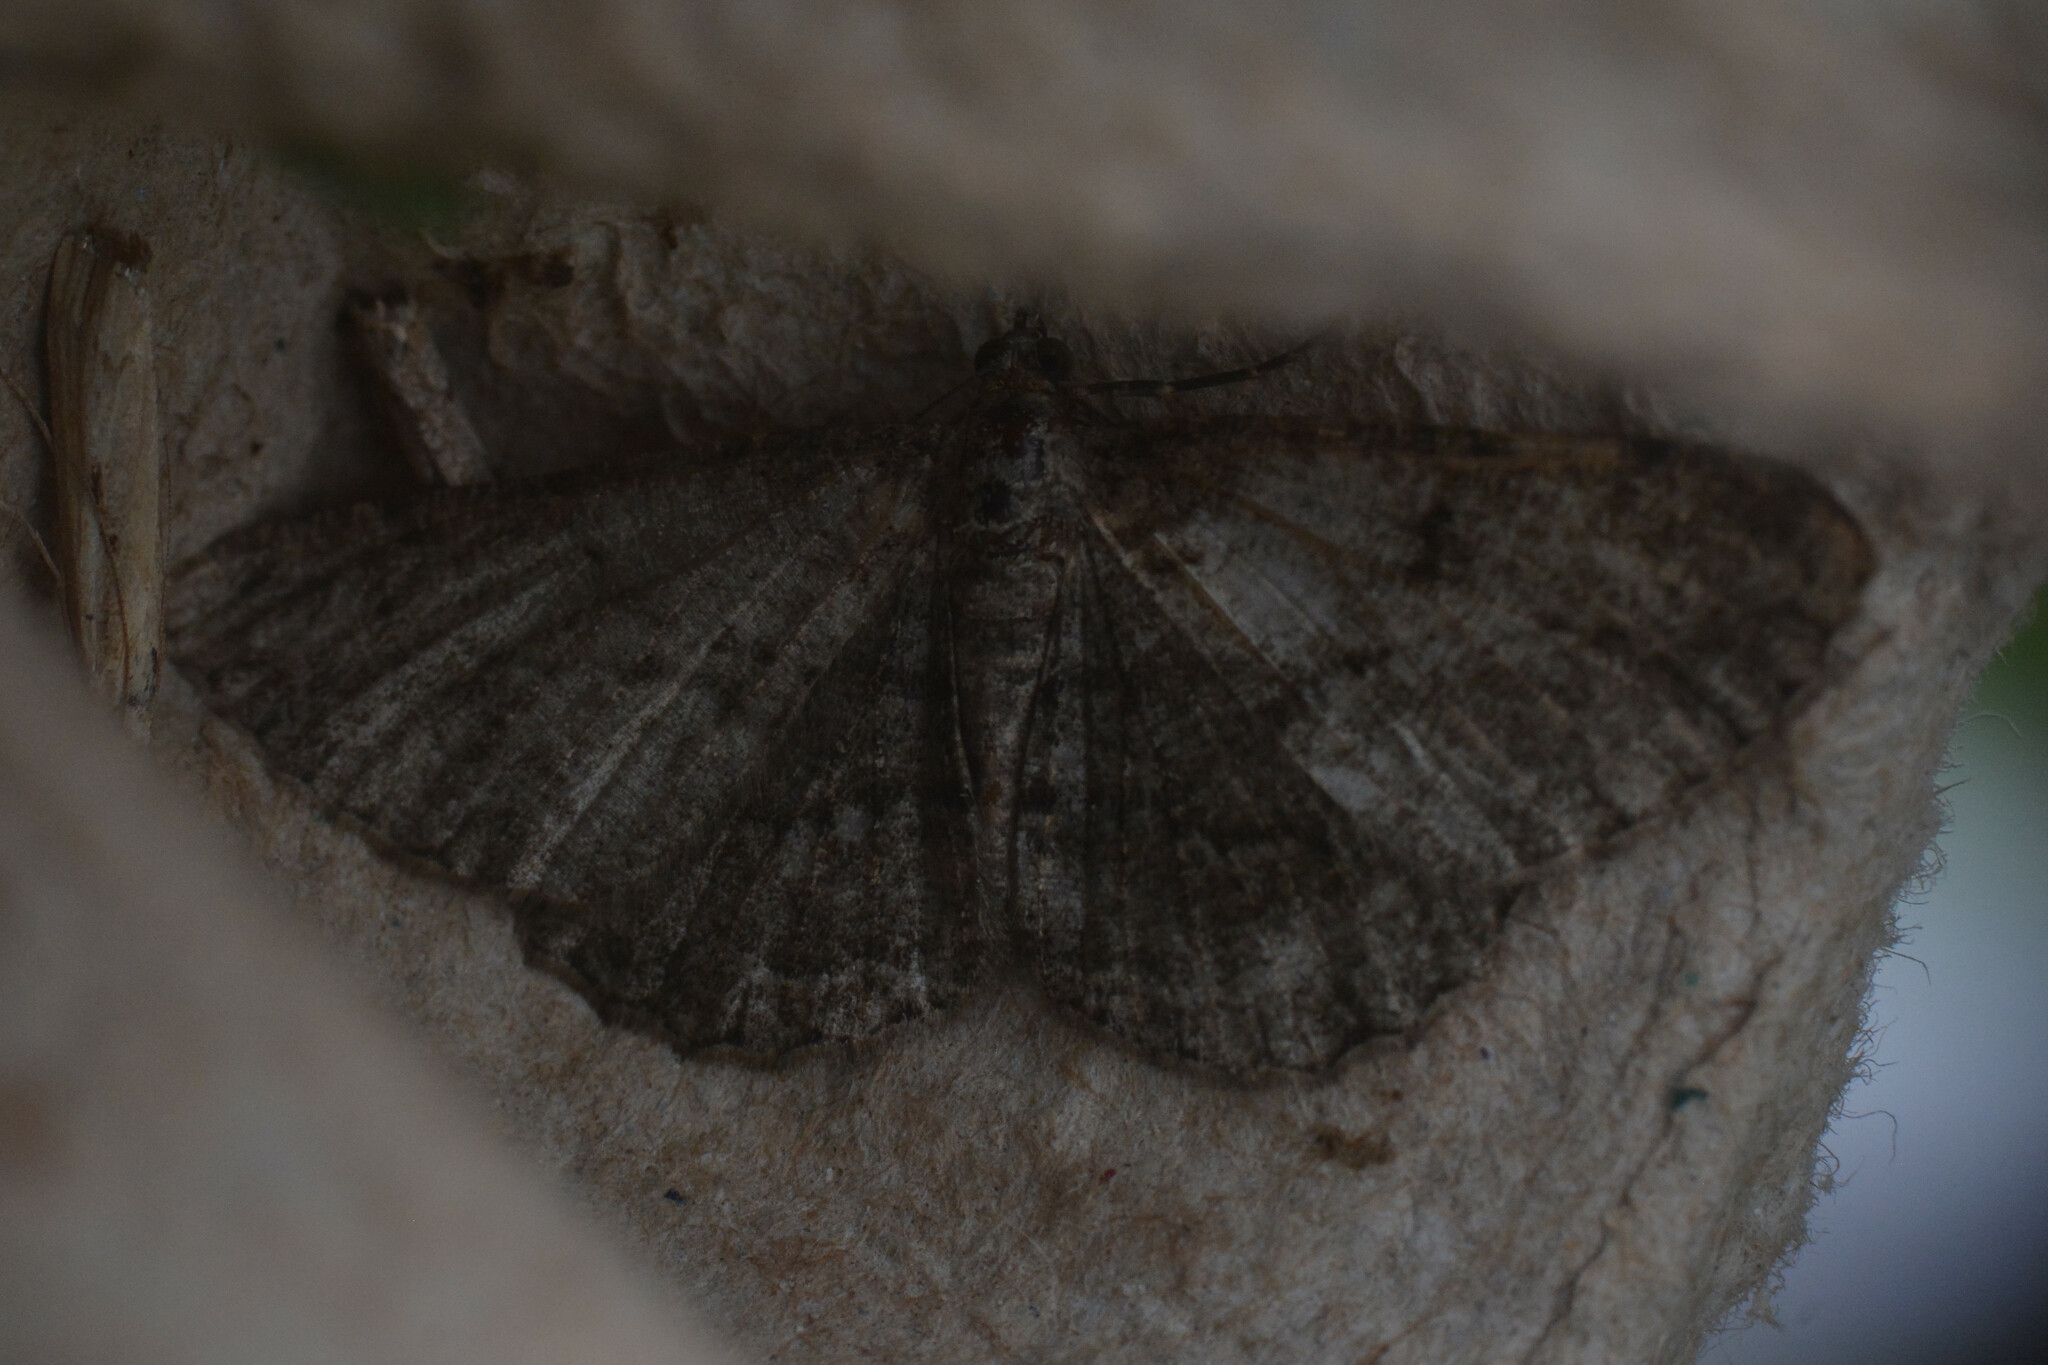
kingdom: Animalia
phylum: Arthropoda
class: Insecta
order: Lepidoptera
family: Geometridae
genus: Peribatodes
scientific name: Peribatodes rhomboidaria
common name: Willow beauty
